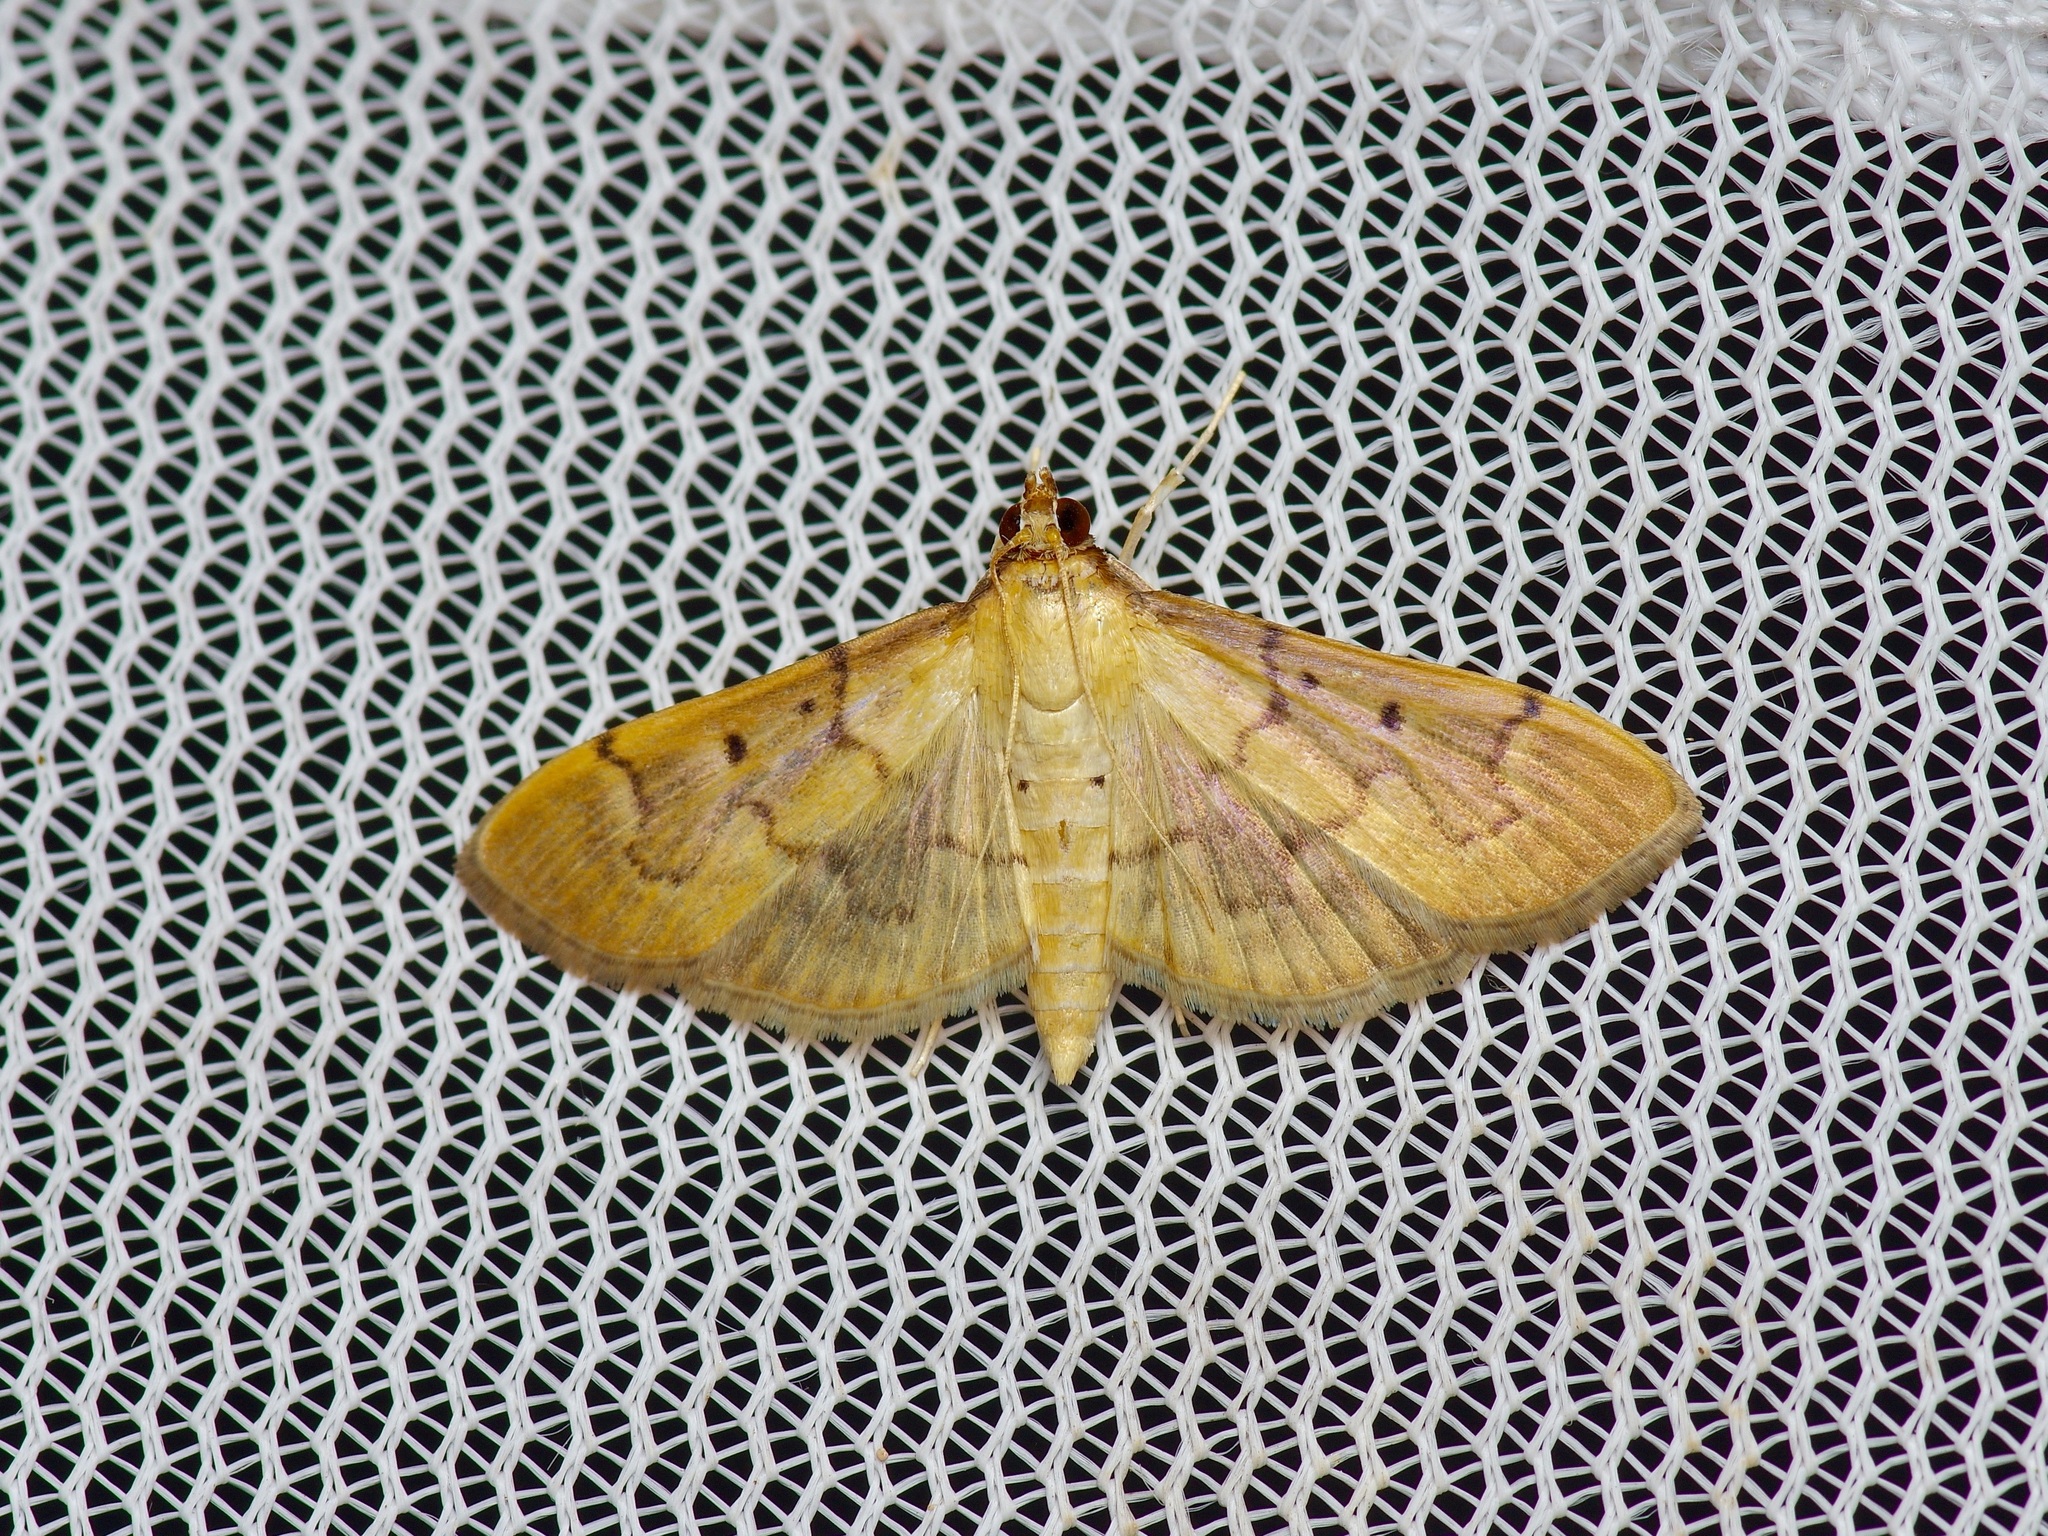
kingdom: Animalia
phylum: Arthropoda
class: Insecta
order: Lepidoptera
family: Crambidae
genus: Herpetogramma
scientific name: Herpetogramma bipunctalis
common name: Southern beet webworm
